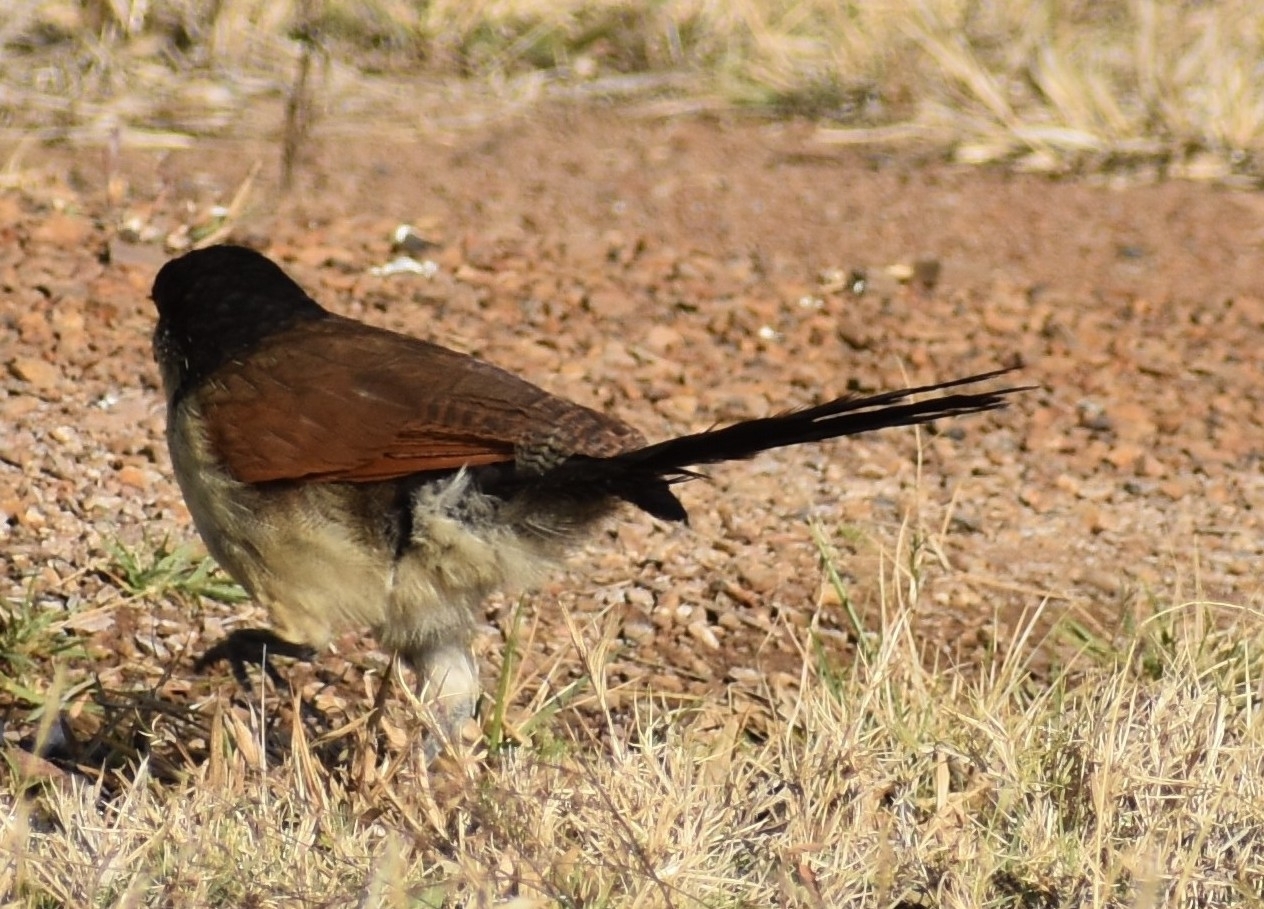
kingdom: Animalia
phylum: Chordata
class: Aves
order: Cuculiformes
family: Cuculidae
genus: Centropus
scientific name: Centropus superciliosus
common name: White-browed coucal
